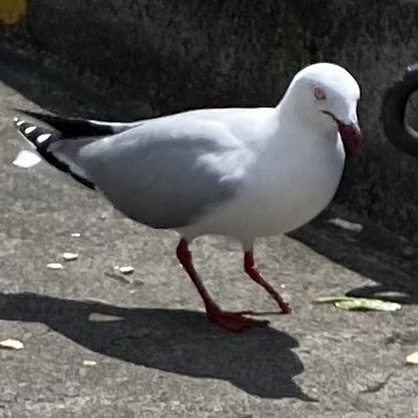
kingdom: Animalia
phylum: Chordata
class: Aves
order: Charadriiformes
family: Laridae
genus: Chroicocephalus
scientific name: Chroicocephalus novaehollandiae
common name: Silver gull
